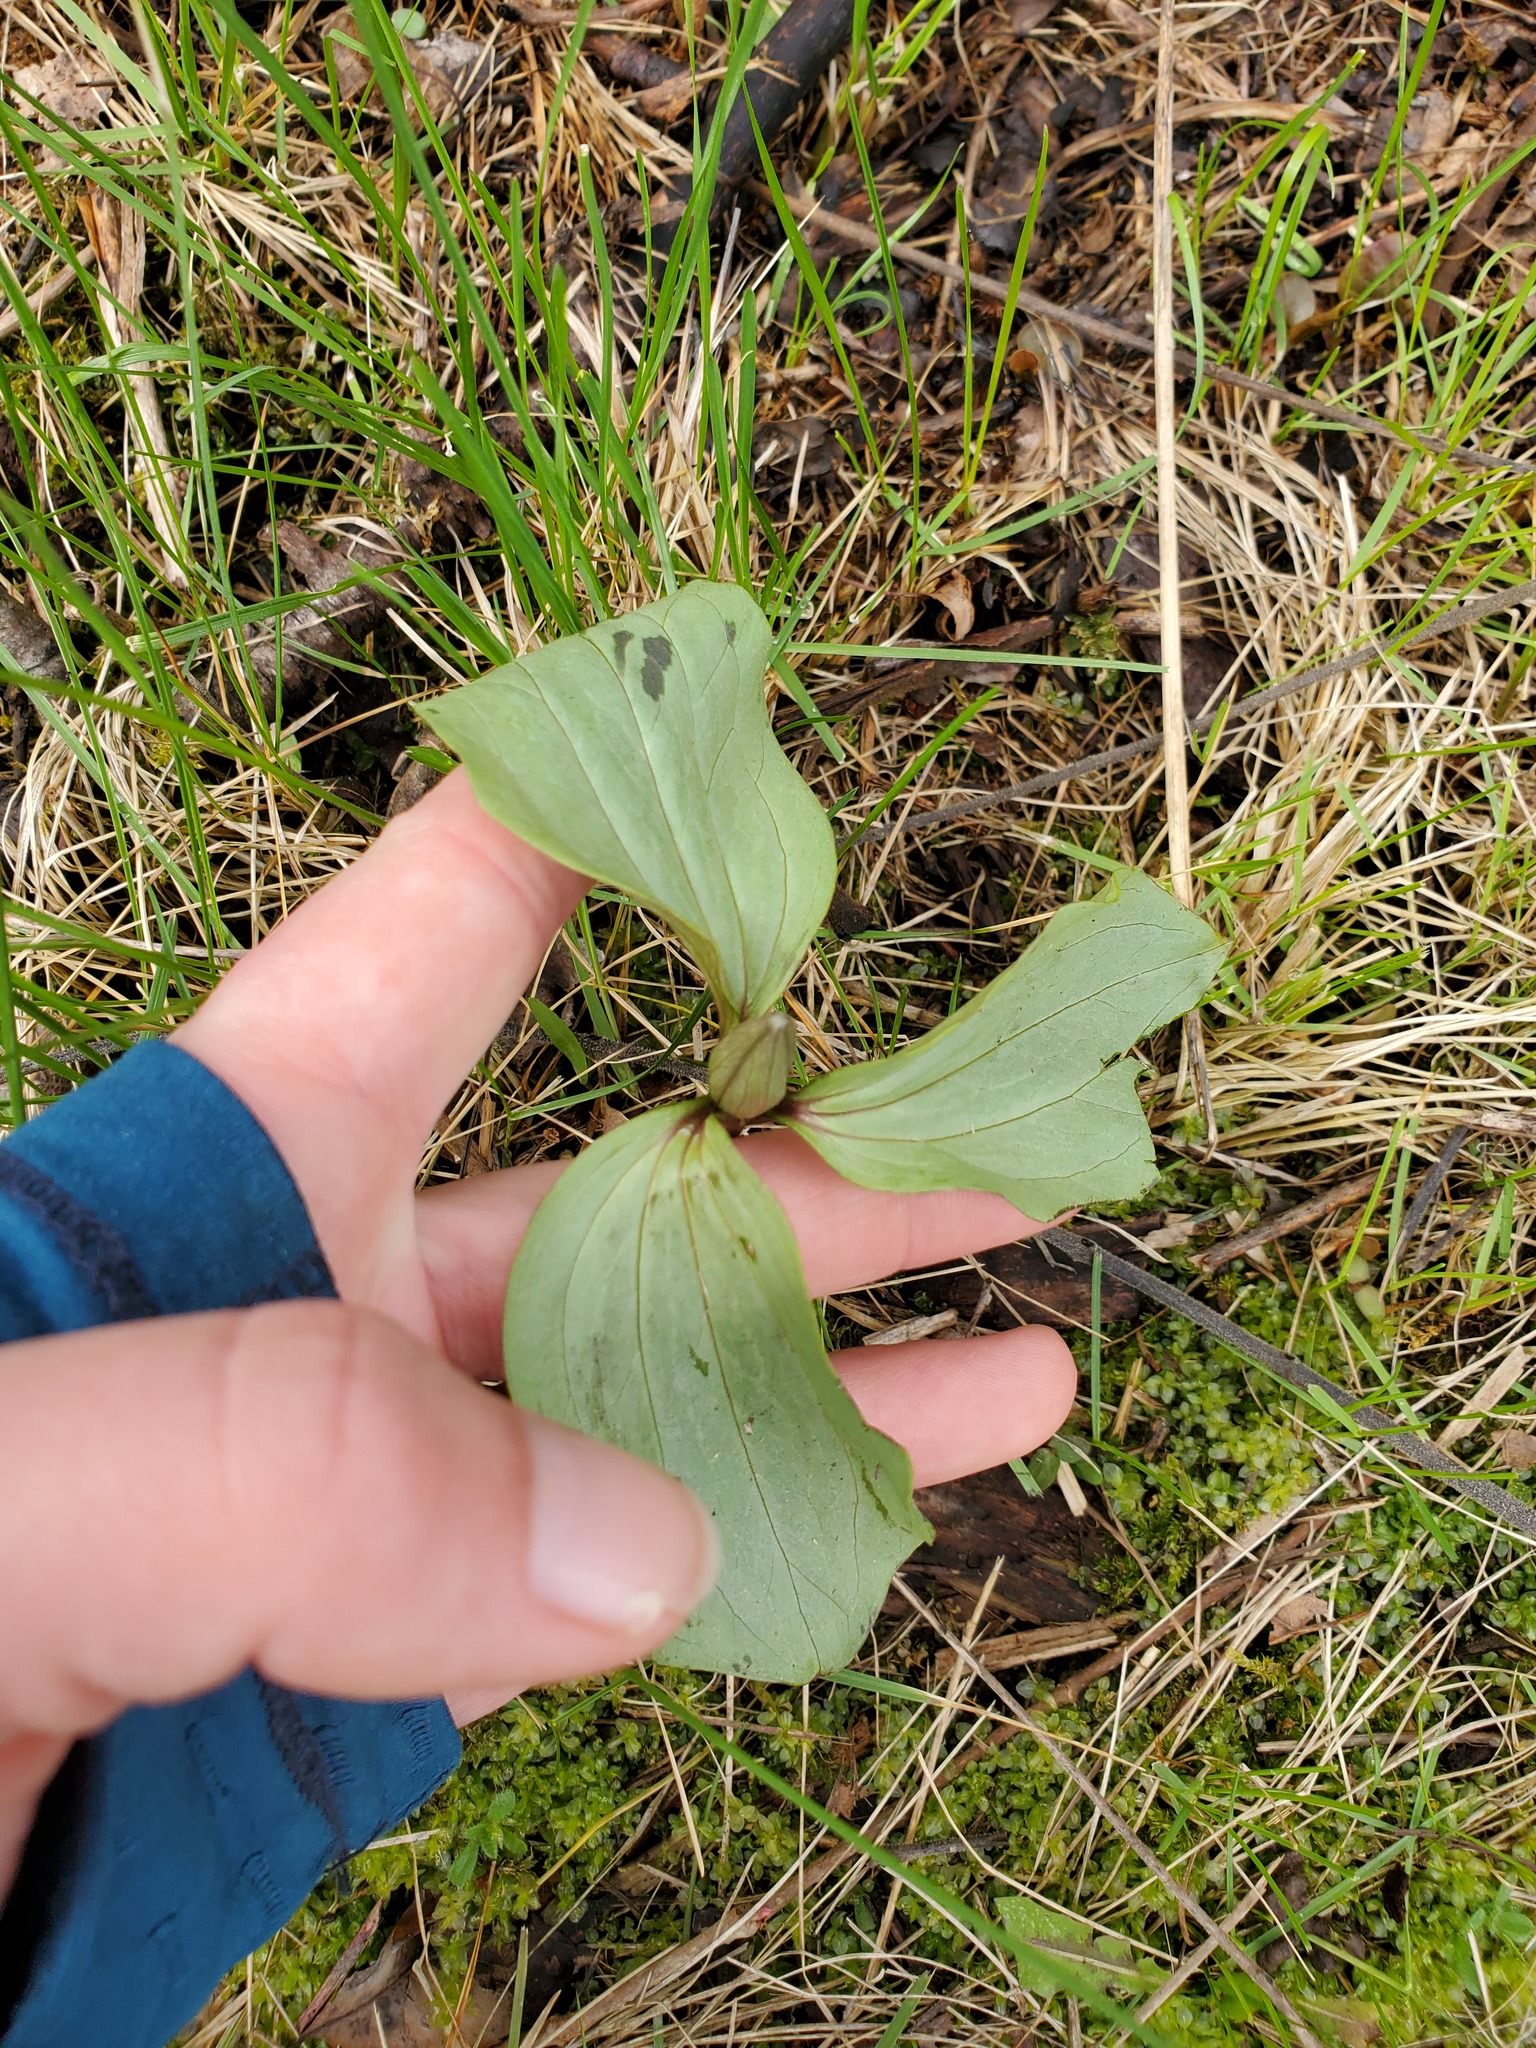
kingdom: Plantae
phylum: Tracheophyta
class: Liliopsida
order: Liliales
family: Melanthiaceae
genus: Trillium
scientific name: Trillium recurvatum
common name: Bloody butcher
